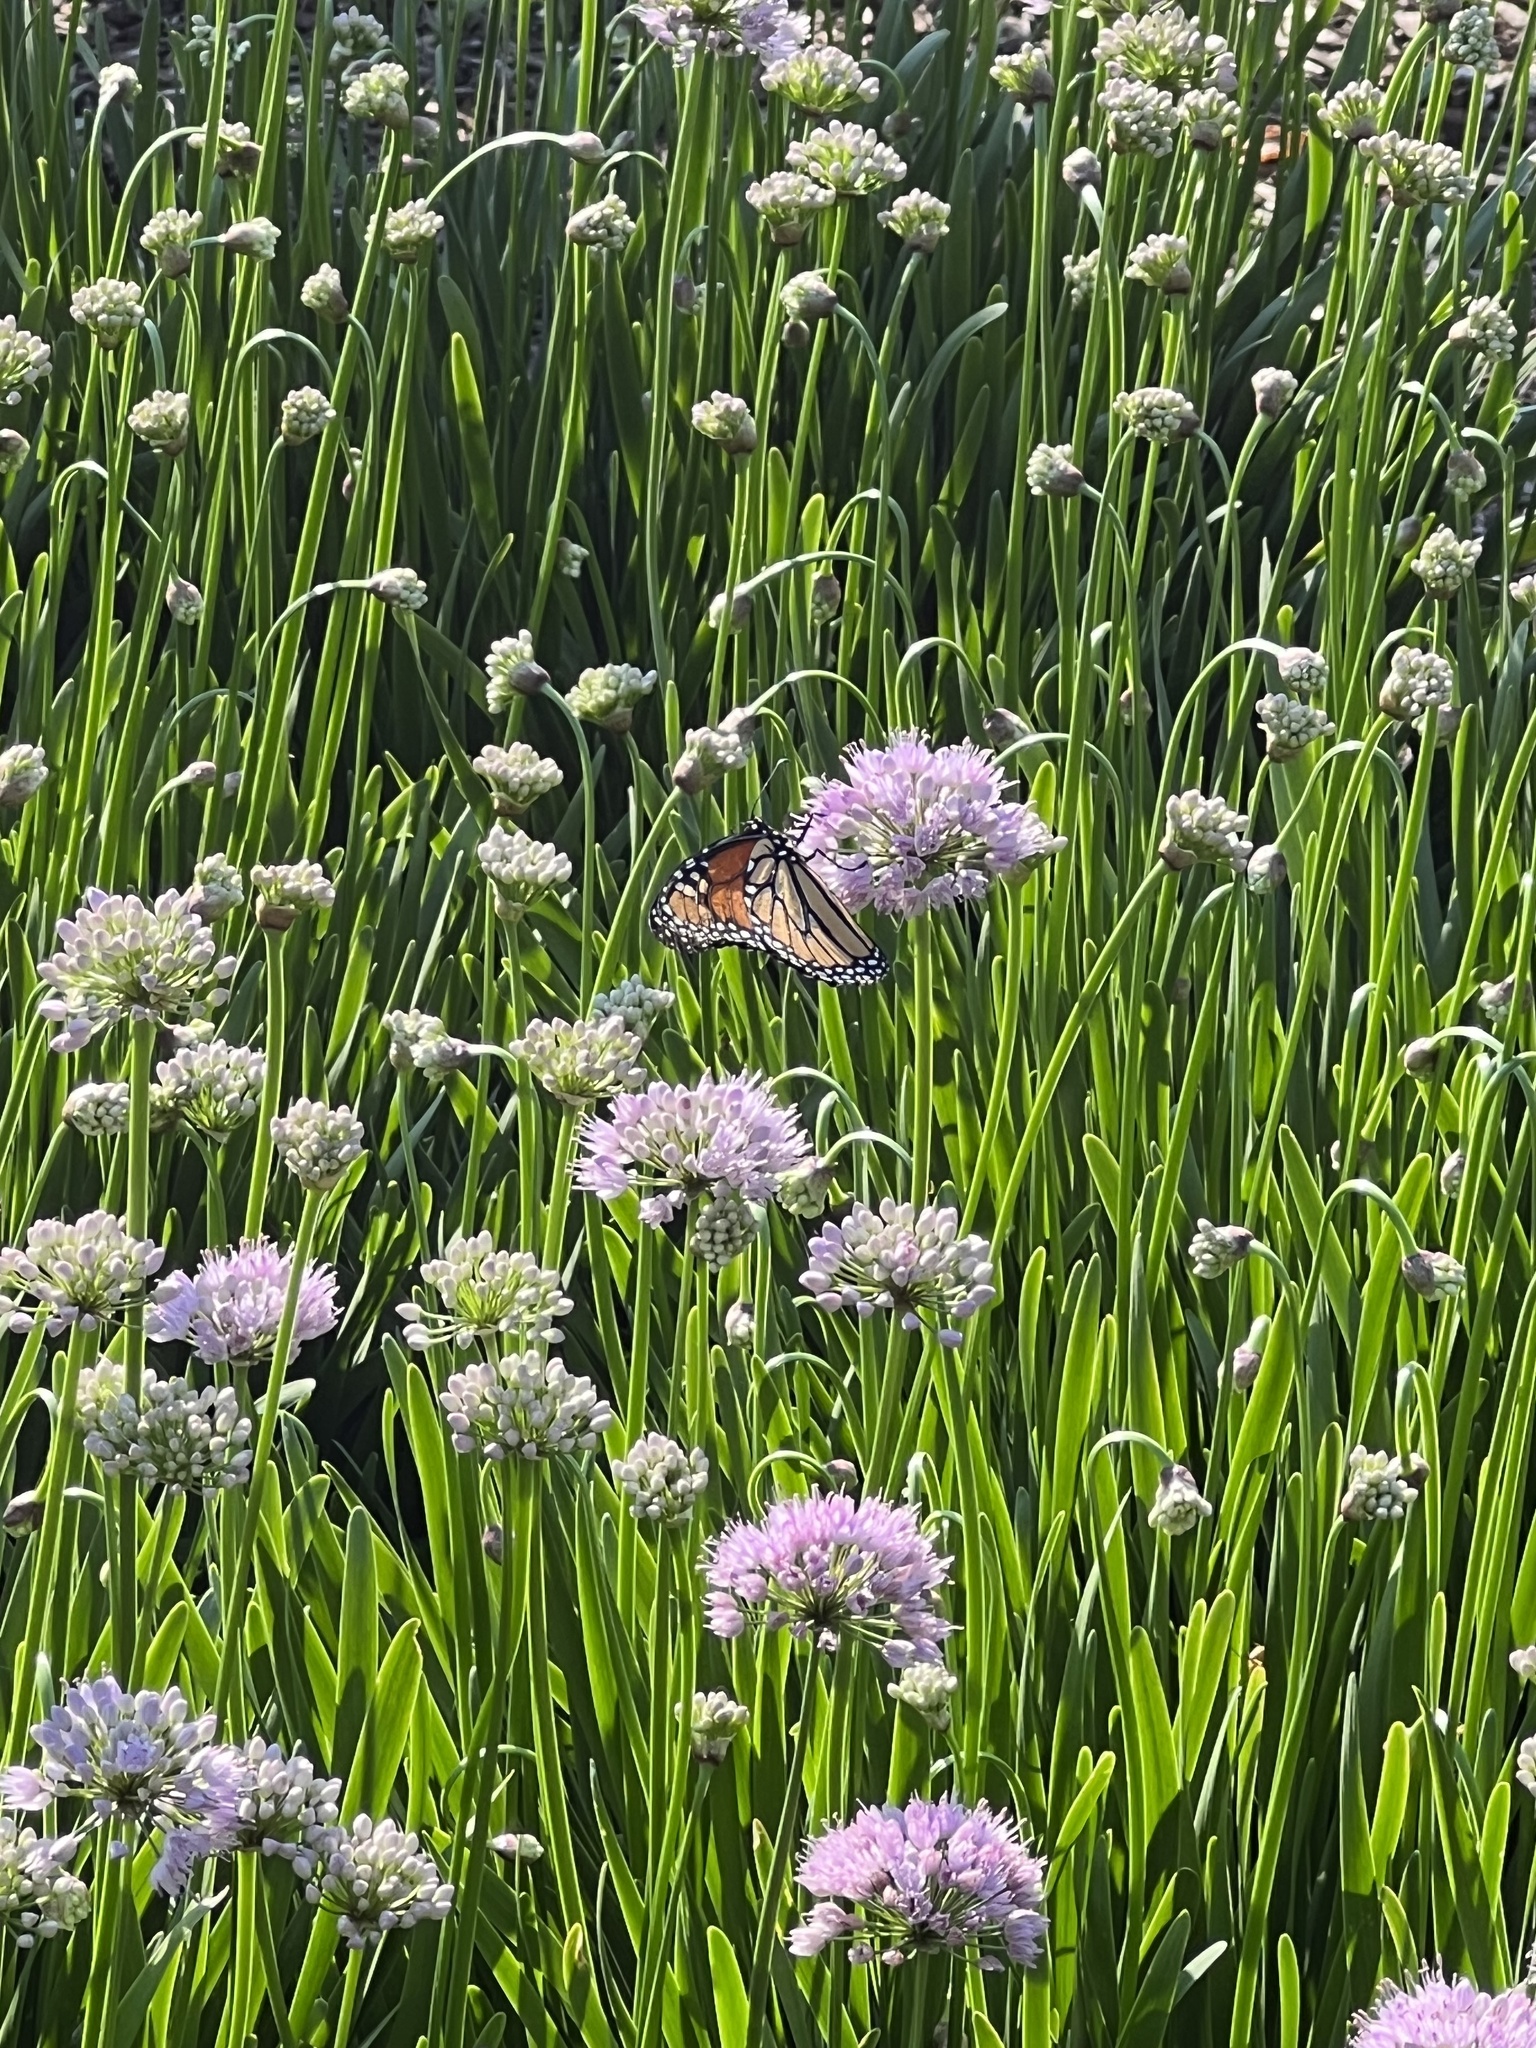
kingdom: Animalia
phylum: Arthropoda
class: Insecta
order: Lepidoptera
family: Nymphalidae
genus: Danaus
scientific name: Danaus plexippus
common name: Monarch
